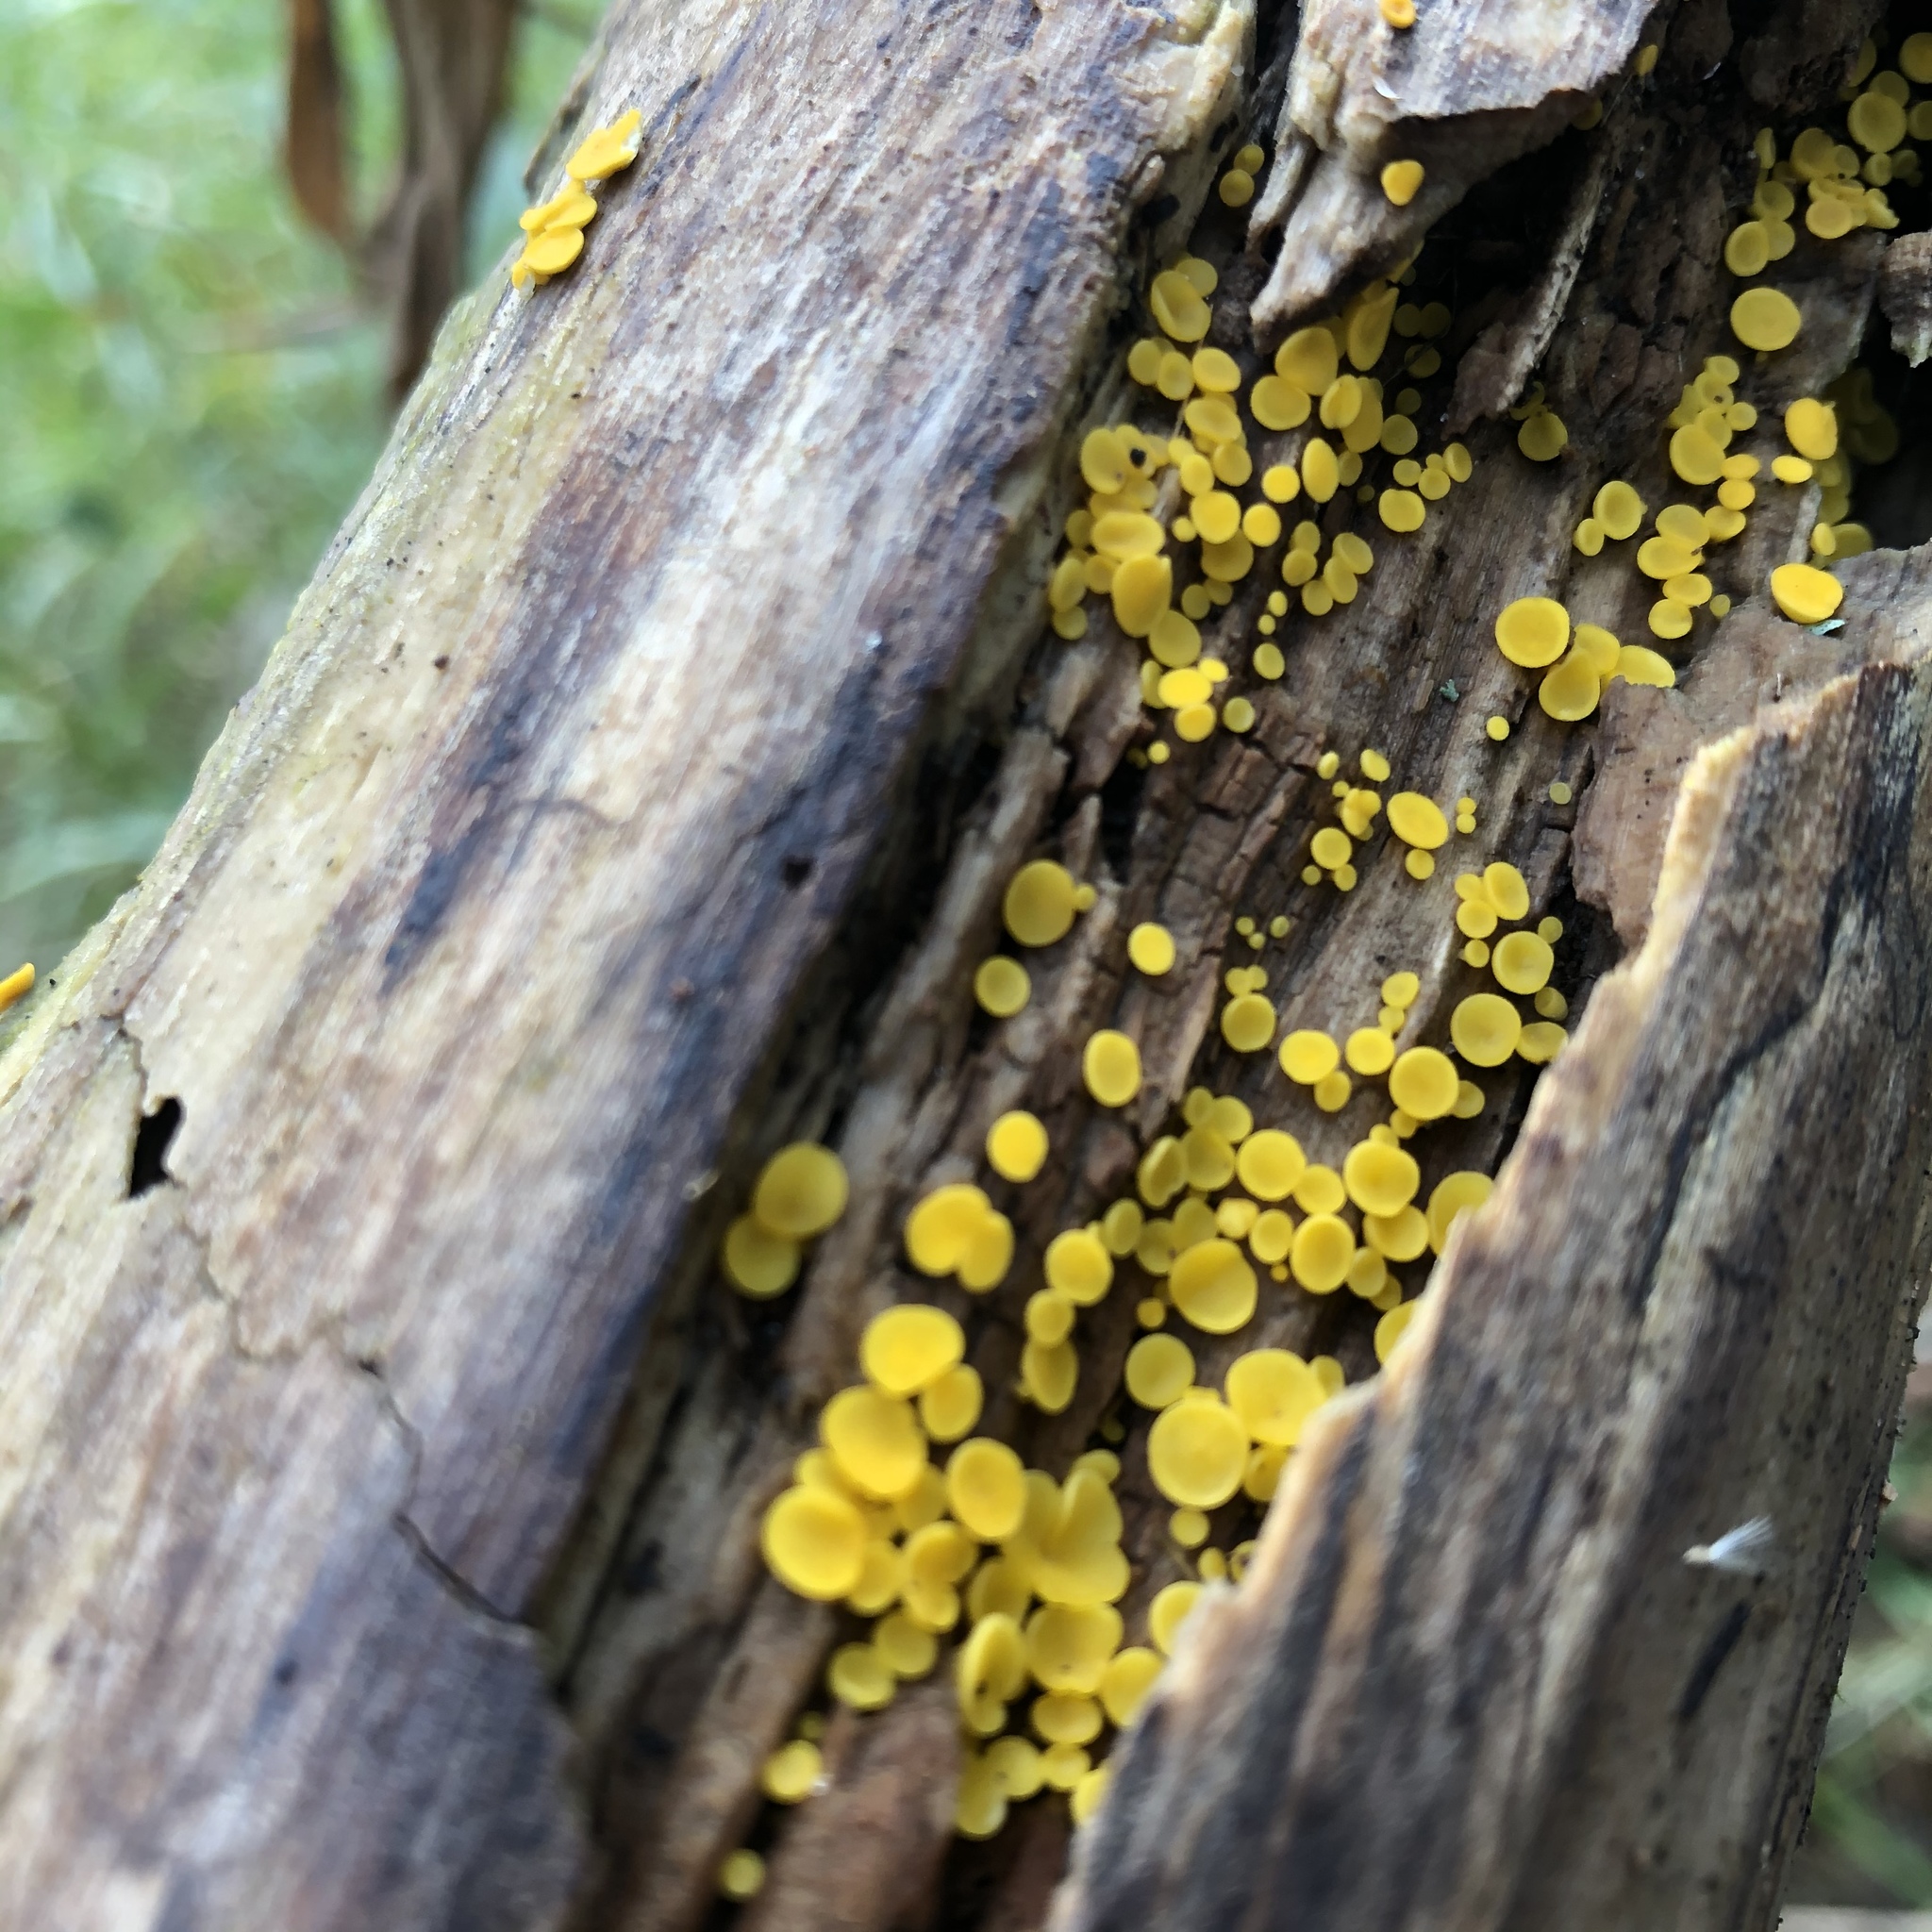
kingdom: Fungi
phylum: Ascomycota
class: Leotiomycetes
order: Helotiales
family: Pezizellaceae
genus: Calycina
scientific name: Calycina citrina
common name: Yellow fairy cups
